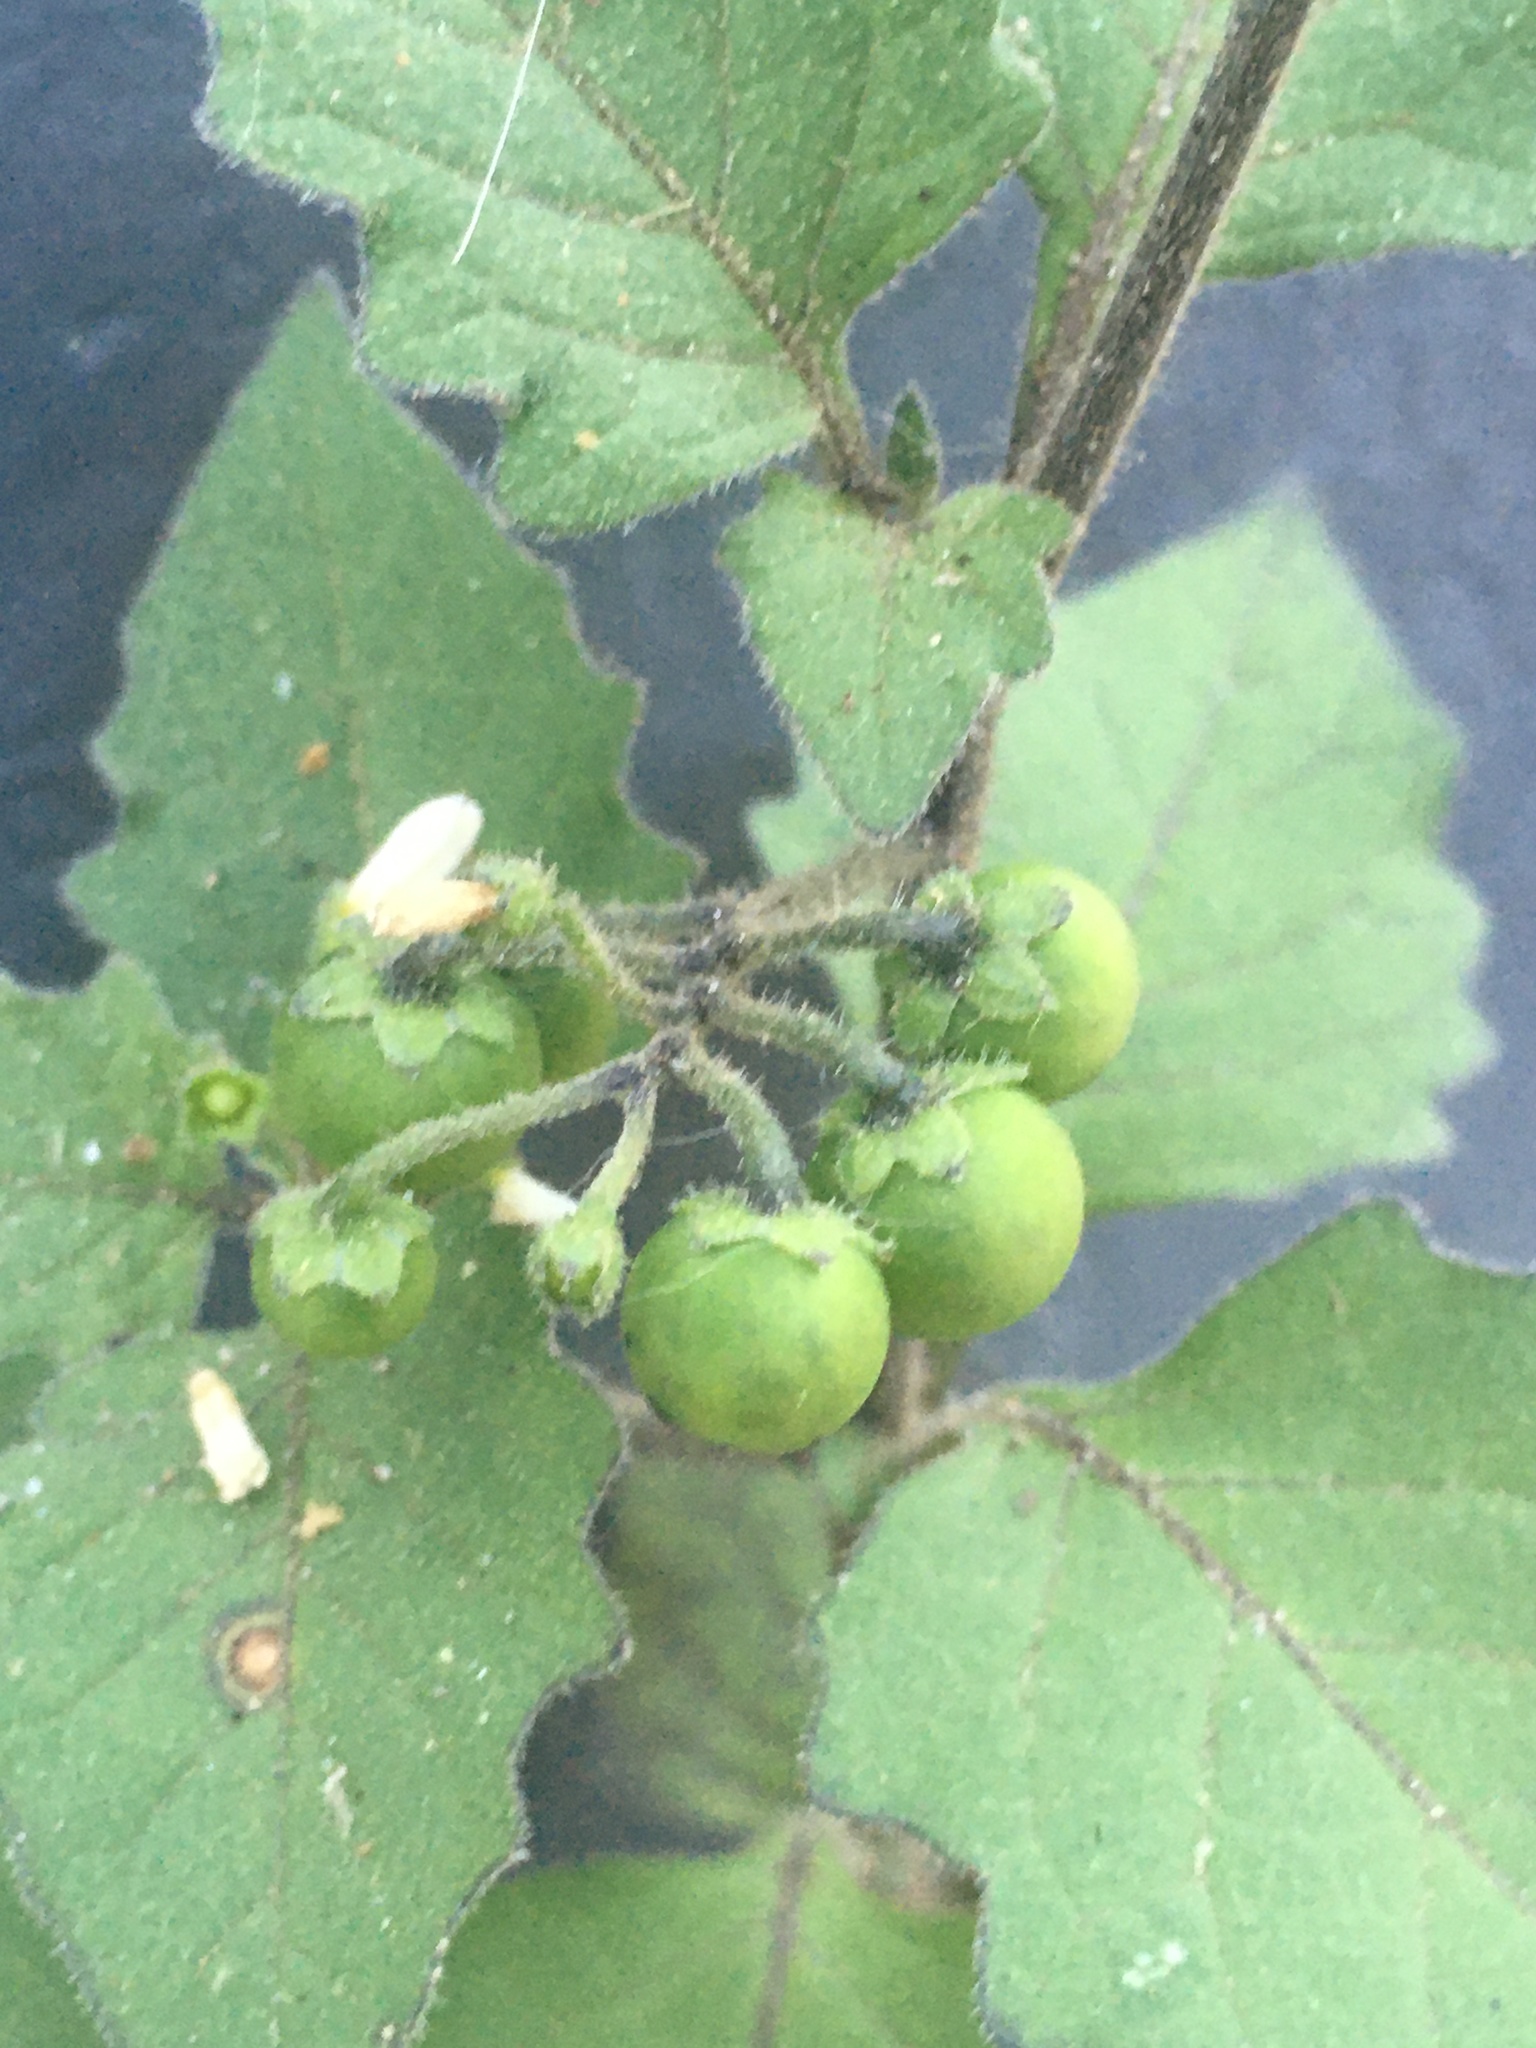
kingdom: Plantae
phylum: Tracheophyta
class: Magnoliopsida
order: Solanales
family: Solanaceae
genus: Solanum
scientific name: Solanum nigrum
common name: Black nightshade
